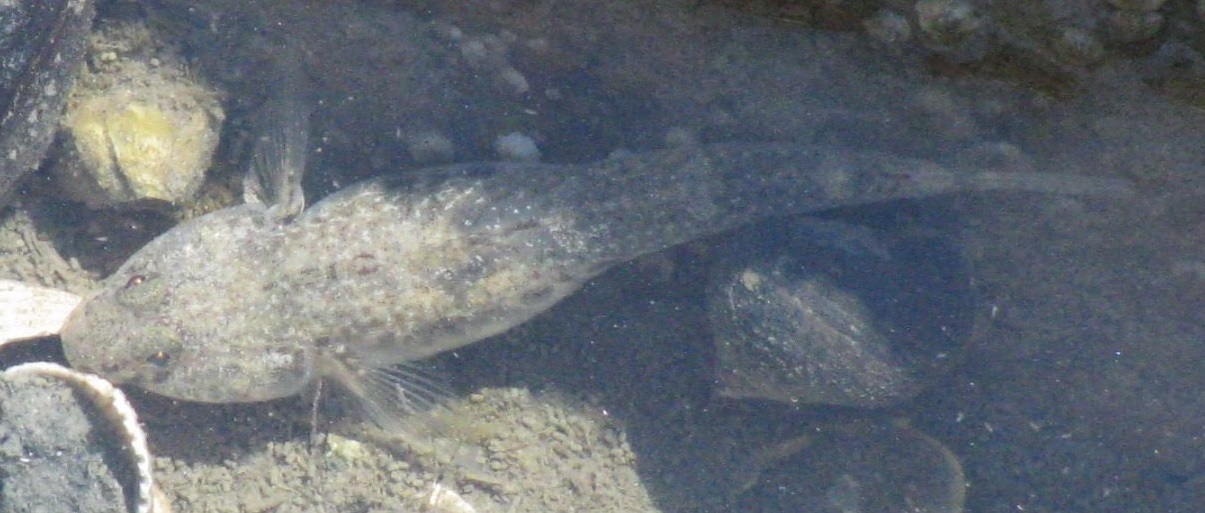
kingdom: Animalia
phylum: Chordata
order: Perciformes
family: Gobiidae
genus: Pomatoschistus
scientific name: Pomatoschistus microps
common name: Common goby
